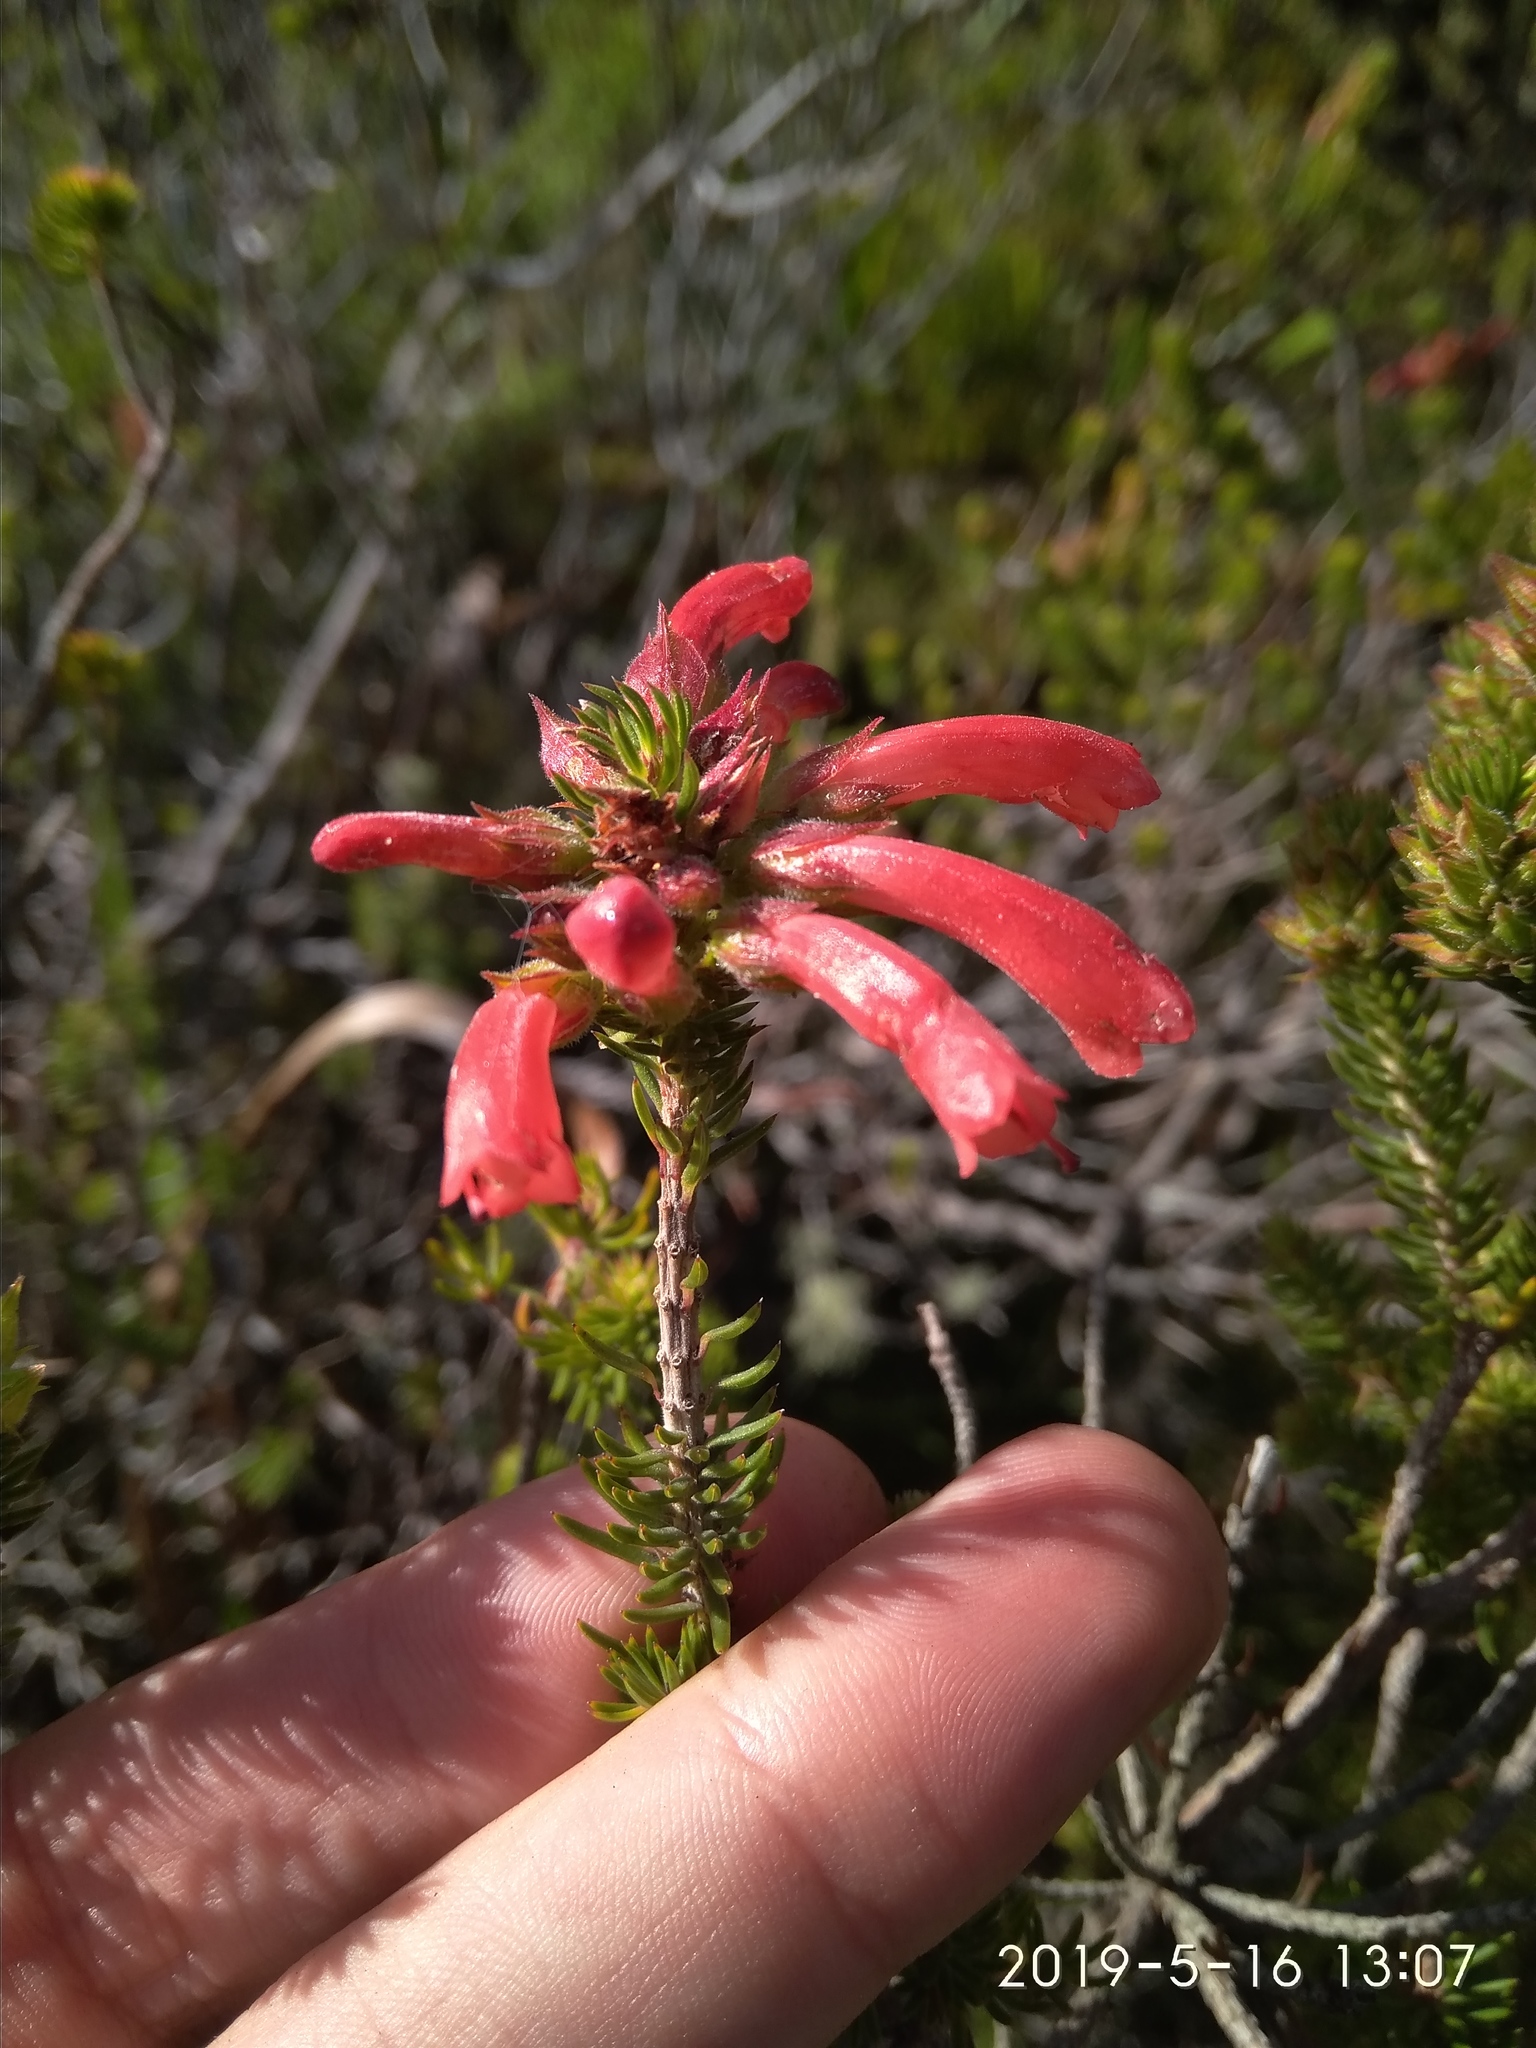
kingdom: Plantae
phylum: Tracheophyta
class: Magnoliopsida
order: Ericales
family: Ericaceae
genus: Erica
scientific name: Erica abietina
